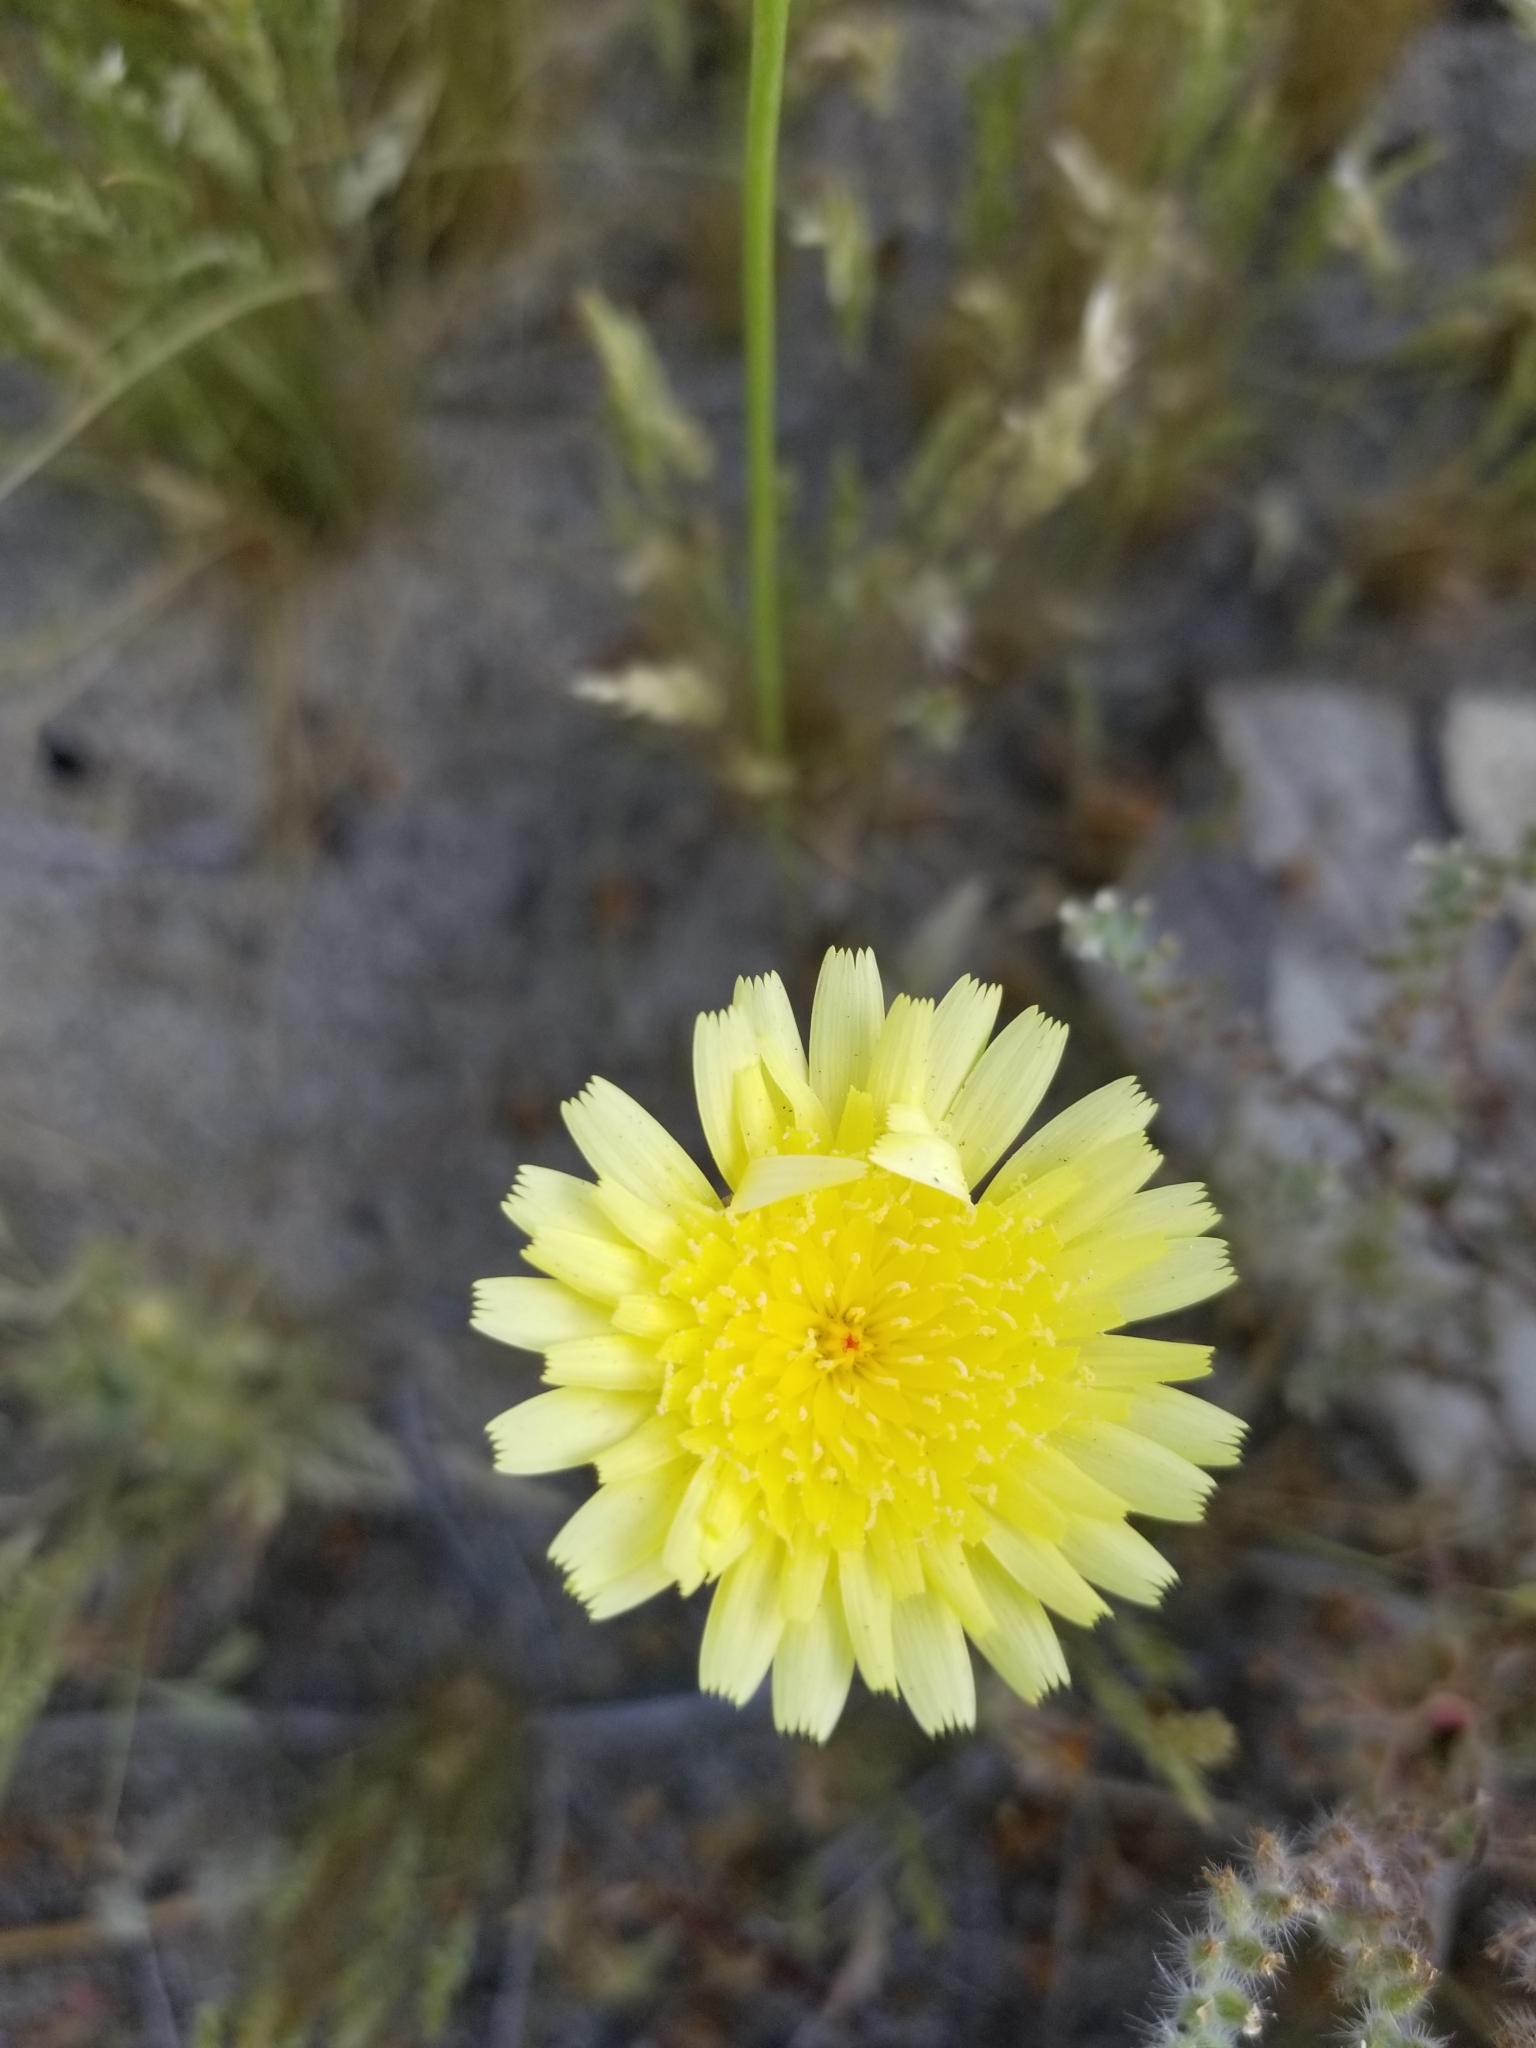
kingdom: Plantae
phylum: Tracheophyta
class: Magnoliopsida
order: Asterales
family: Asteraceae
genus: Malacothrix
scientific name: Malacothrix glabrata
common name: Smooth desert-dandelion
